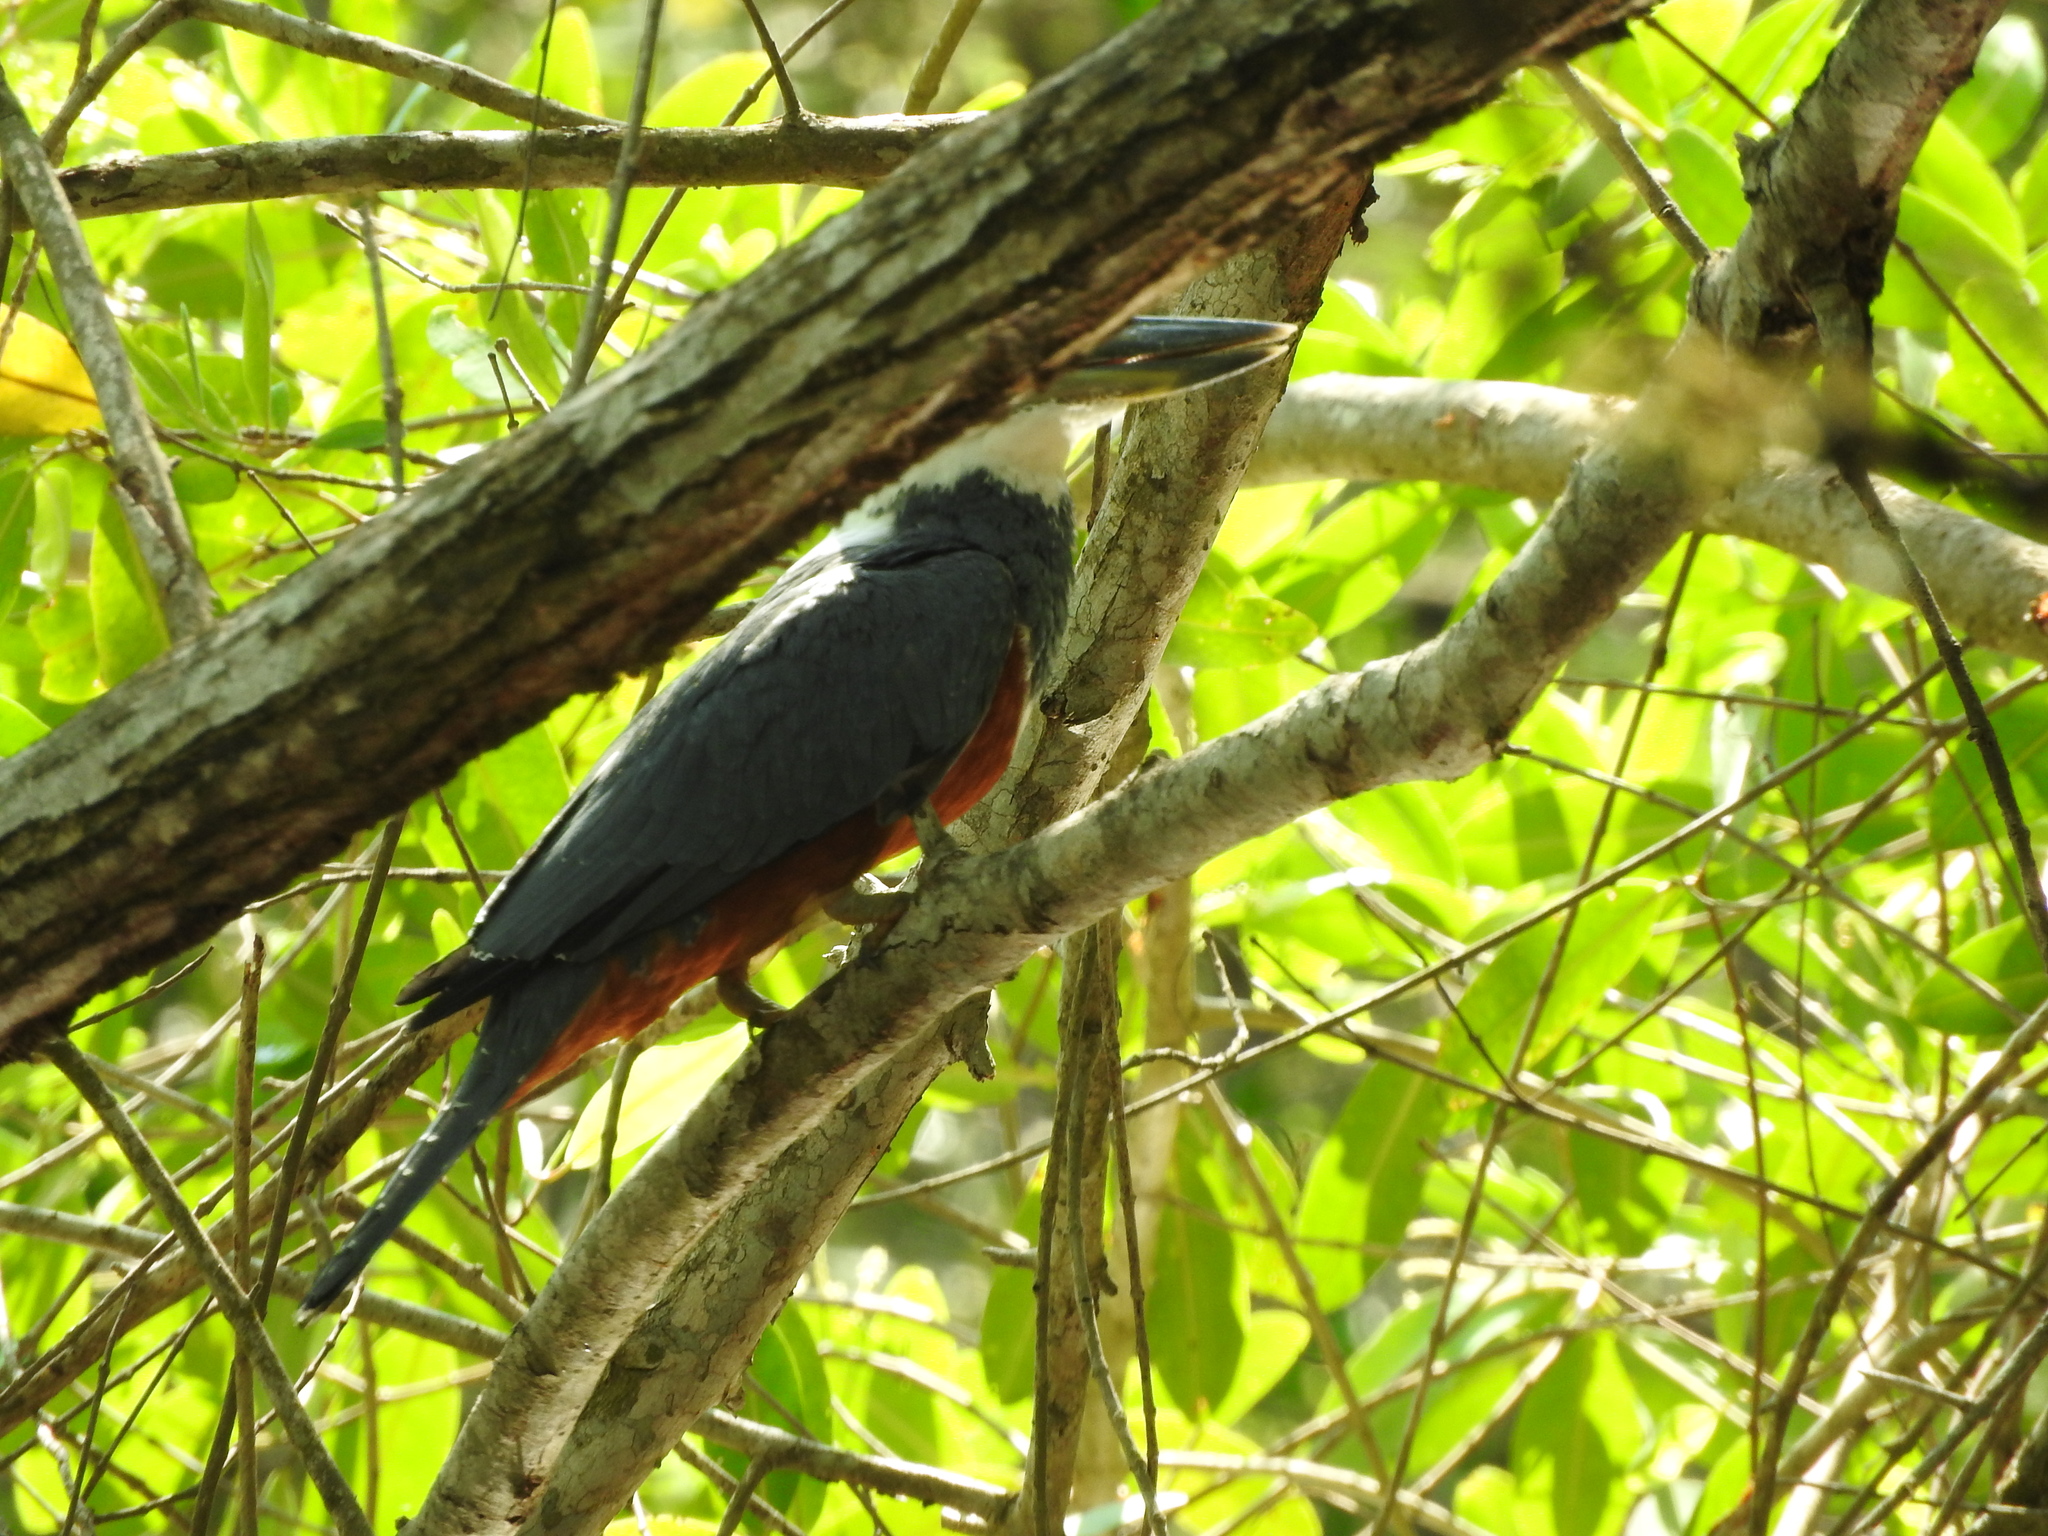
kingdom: Animalia
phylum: Chordata
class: Aves
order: Coraciiformes
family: Alcedinidae
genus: Megaceryle
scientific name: Megaceryle torquata
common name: Ringed kingfisher
